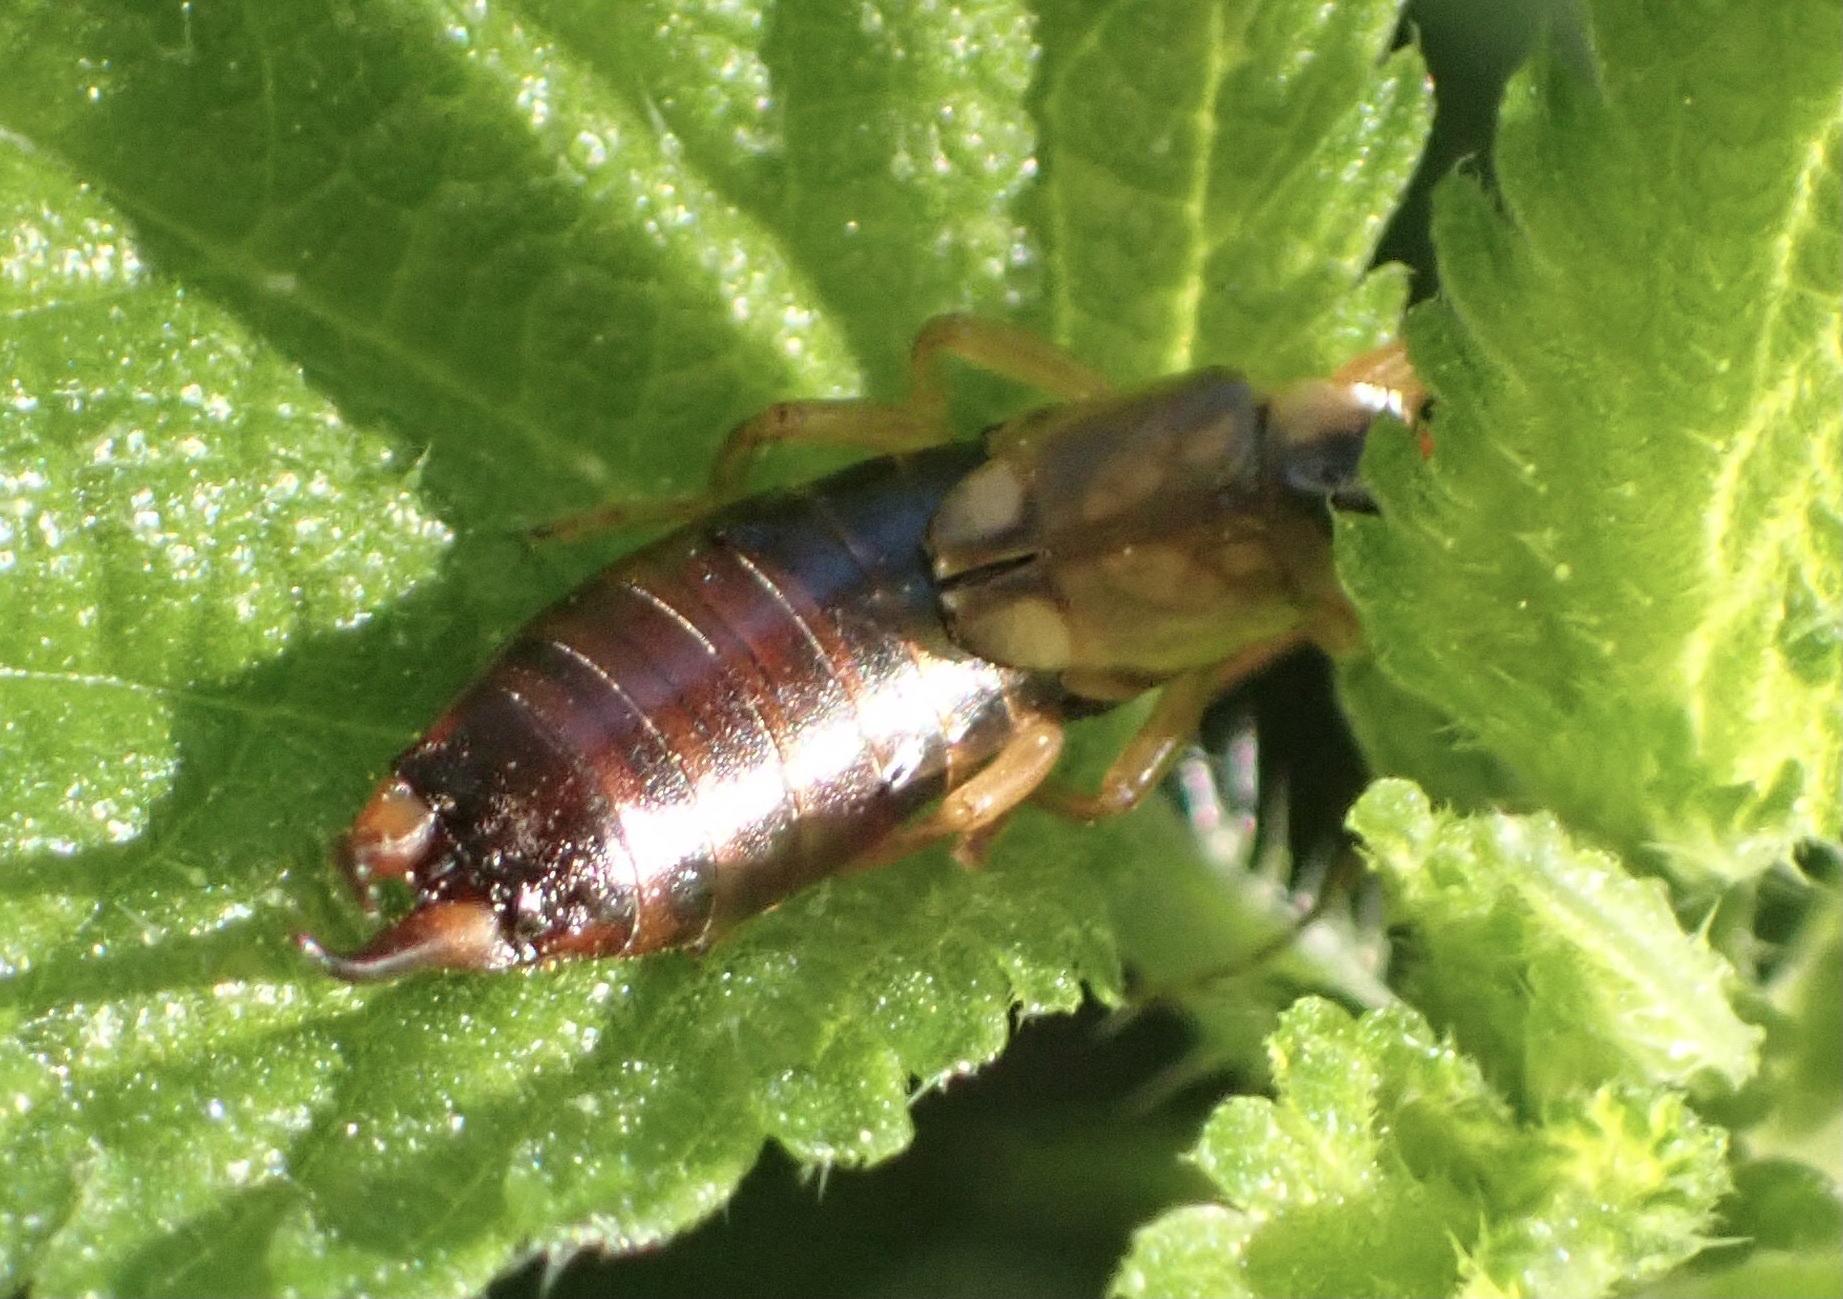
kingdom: Animalia
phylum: Arthropoda
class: Insecta
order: Dermaptera
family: Forficulidae
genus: Forficula
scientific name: Forficula
